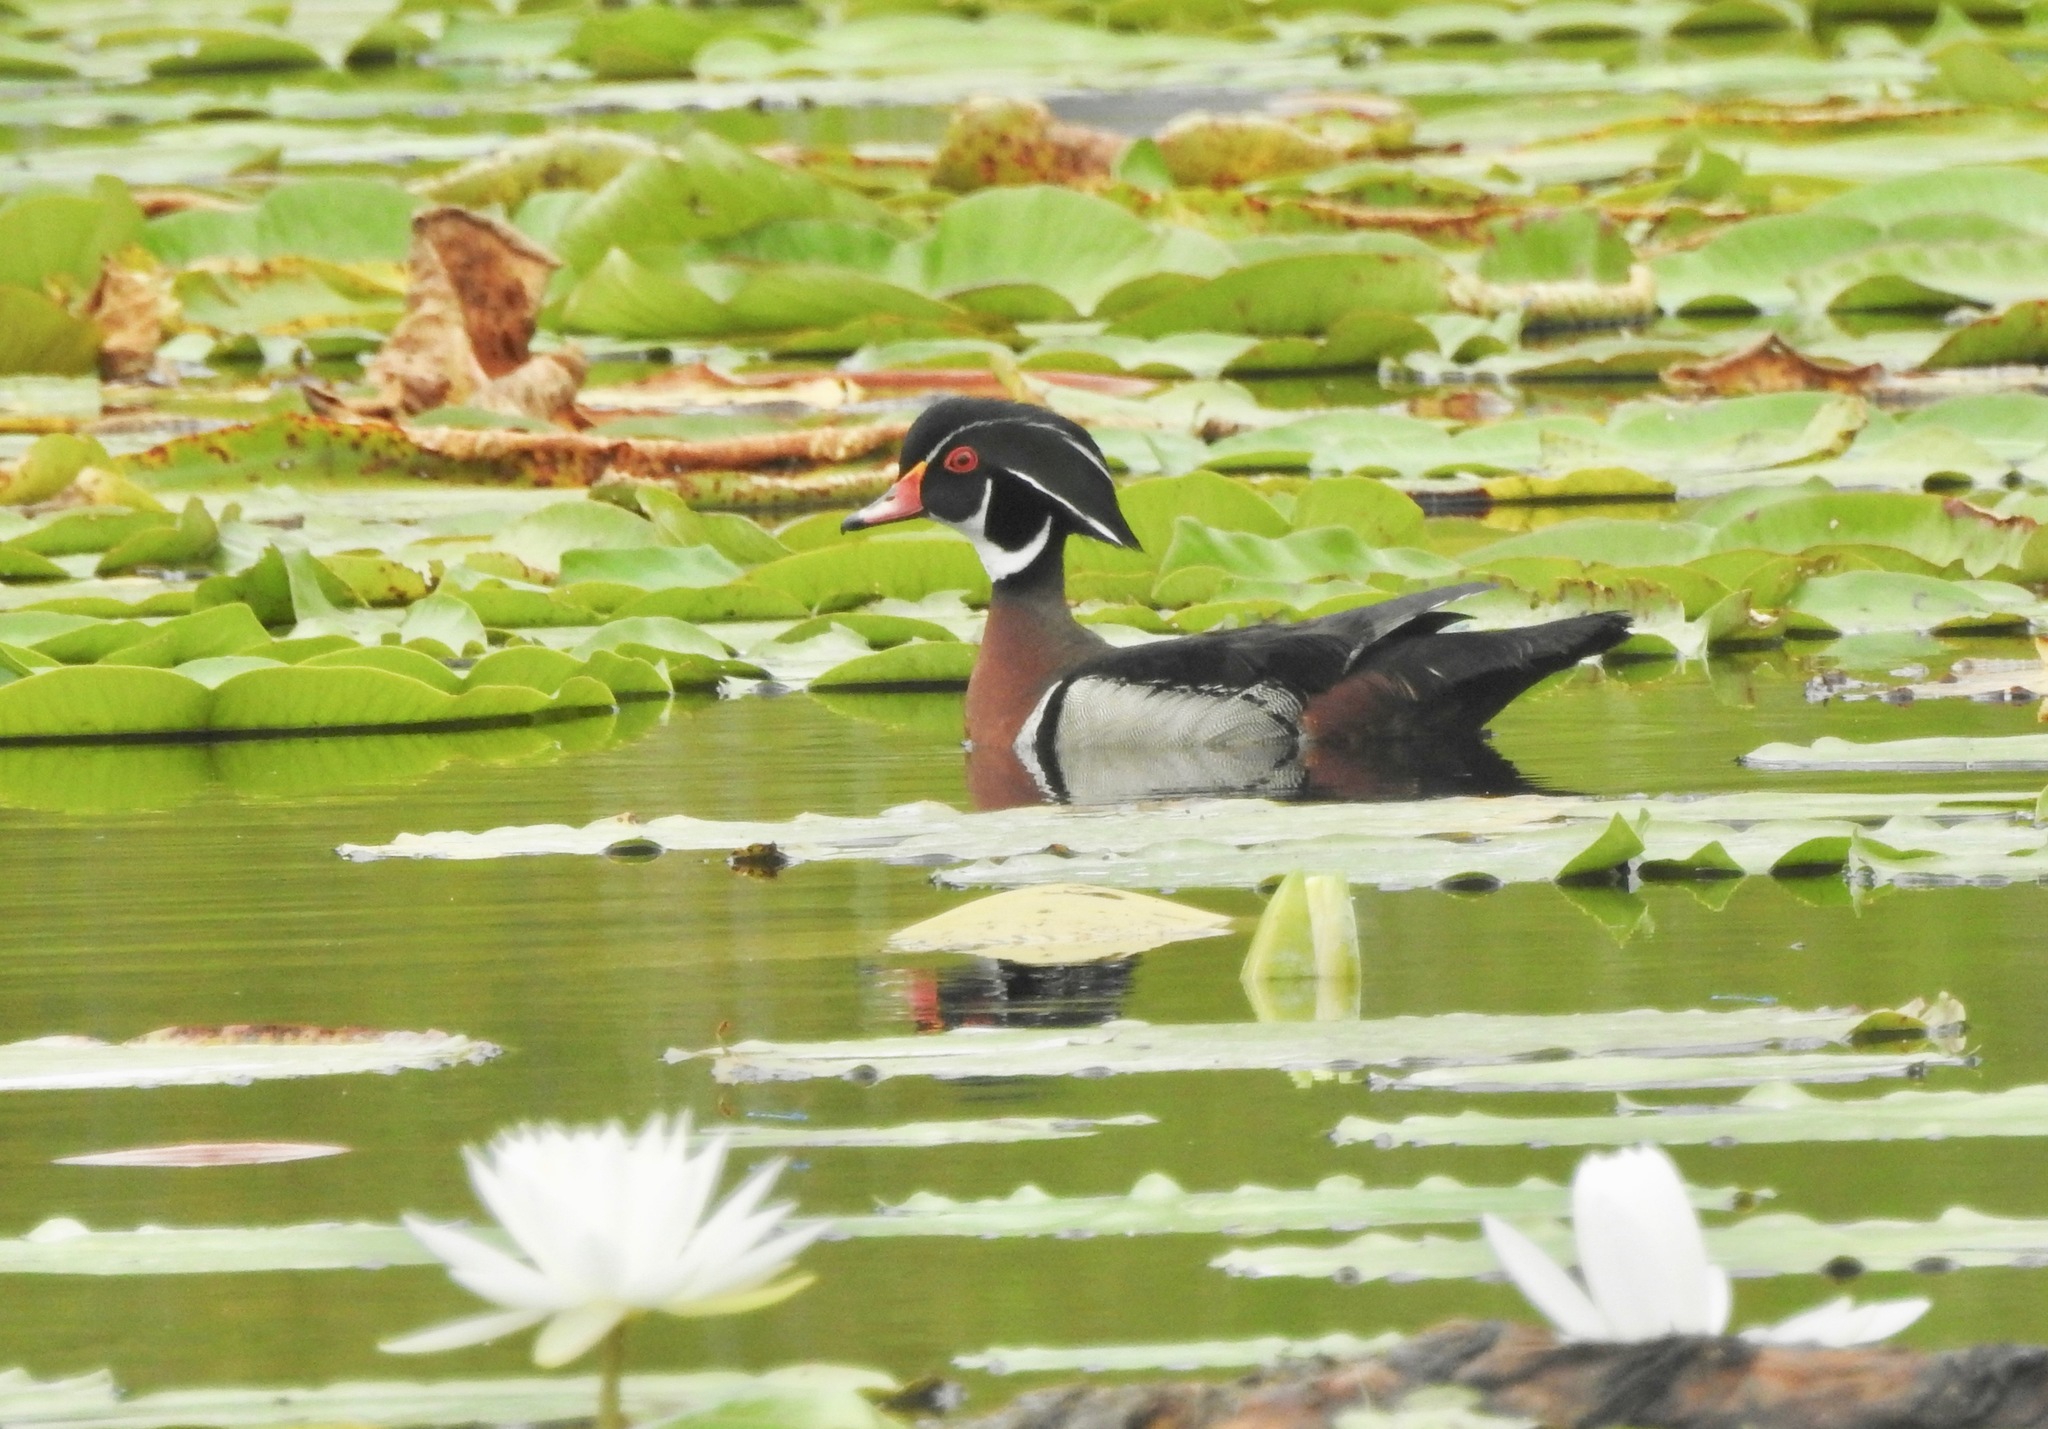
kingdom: Animalia
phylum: Chordata
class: Aves
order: Anseriformes
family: Anatidae
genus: Aix
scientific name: Aix sponsa
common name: Wood duck
